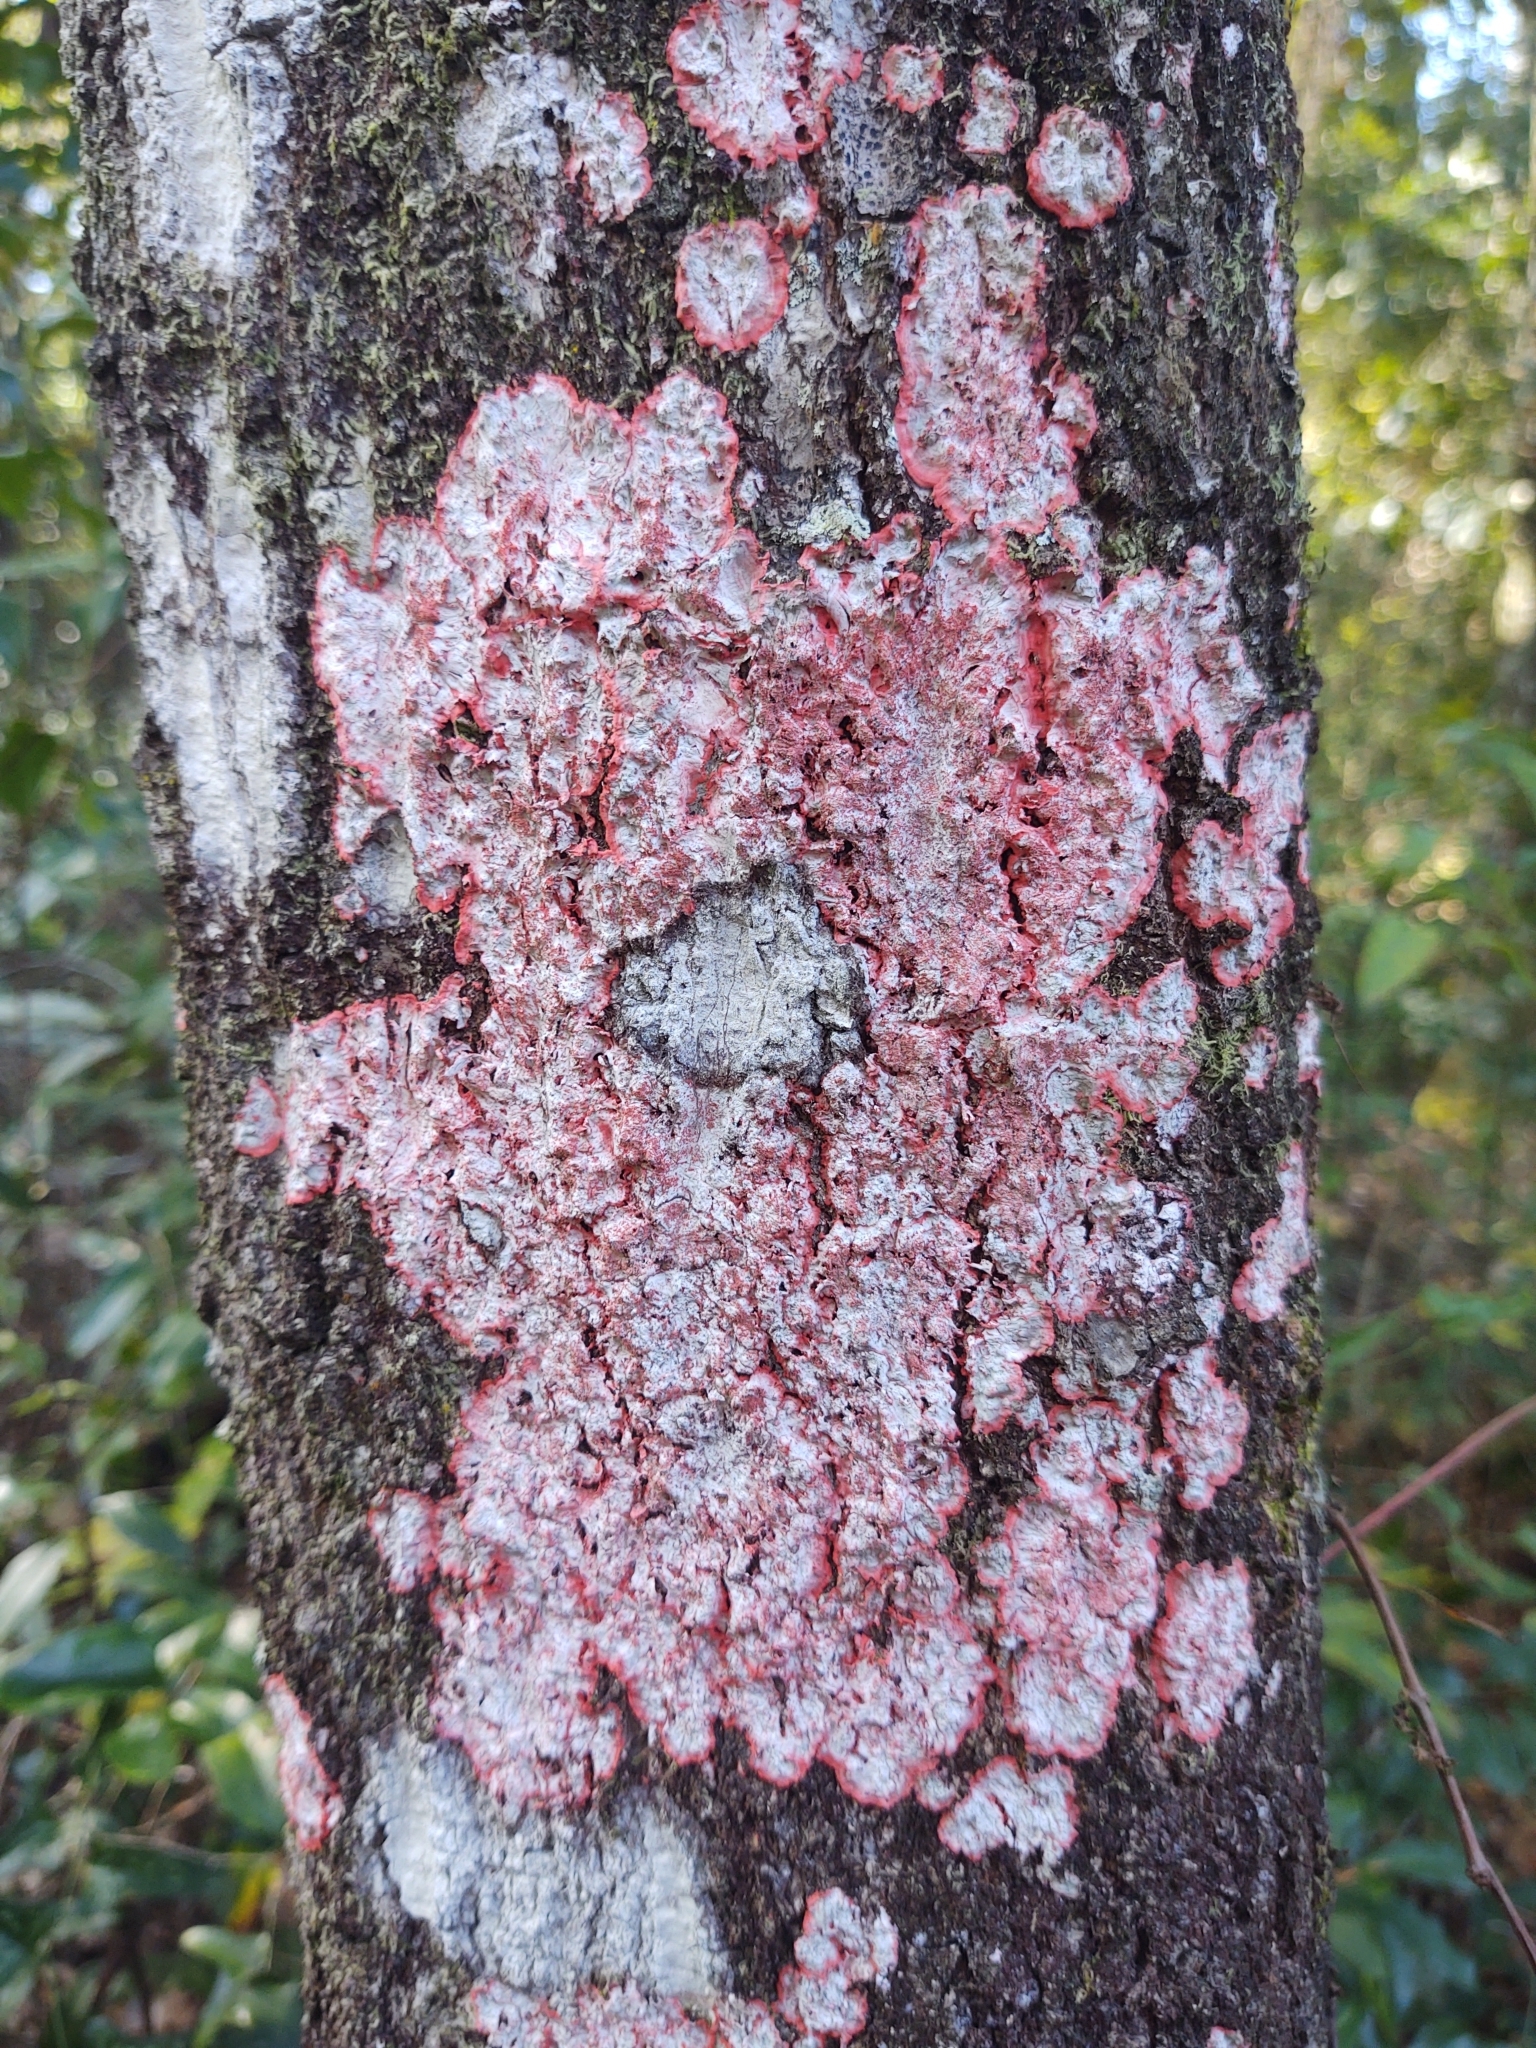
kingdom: Fungi
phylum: Ascomycota
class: Arthoniomycetes
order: Arthoniales
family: Arthoniaceae
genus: Herpothallon
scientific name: Herpothallon rubrocinctum
